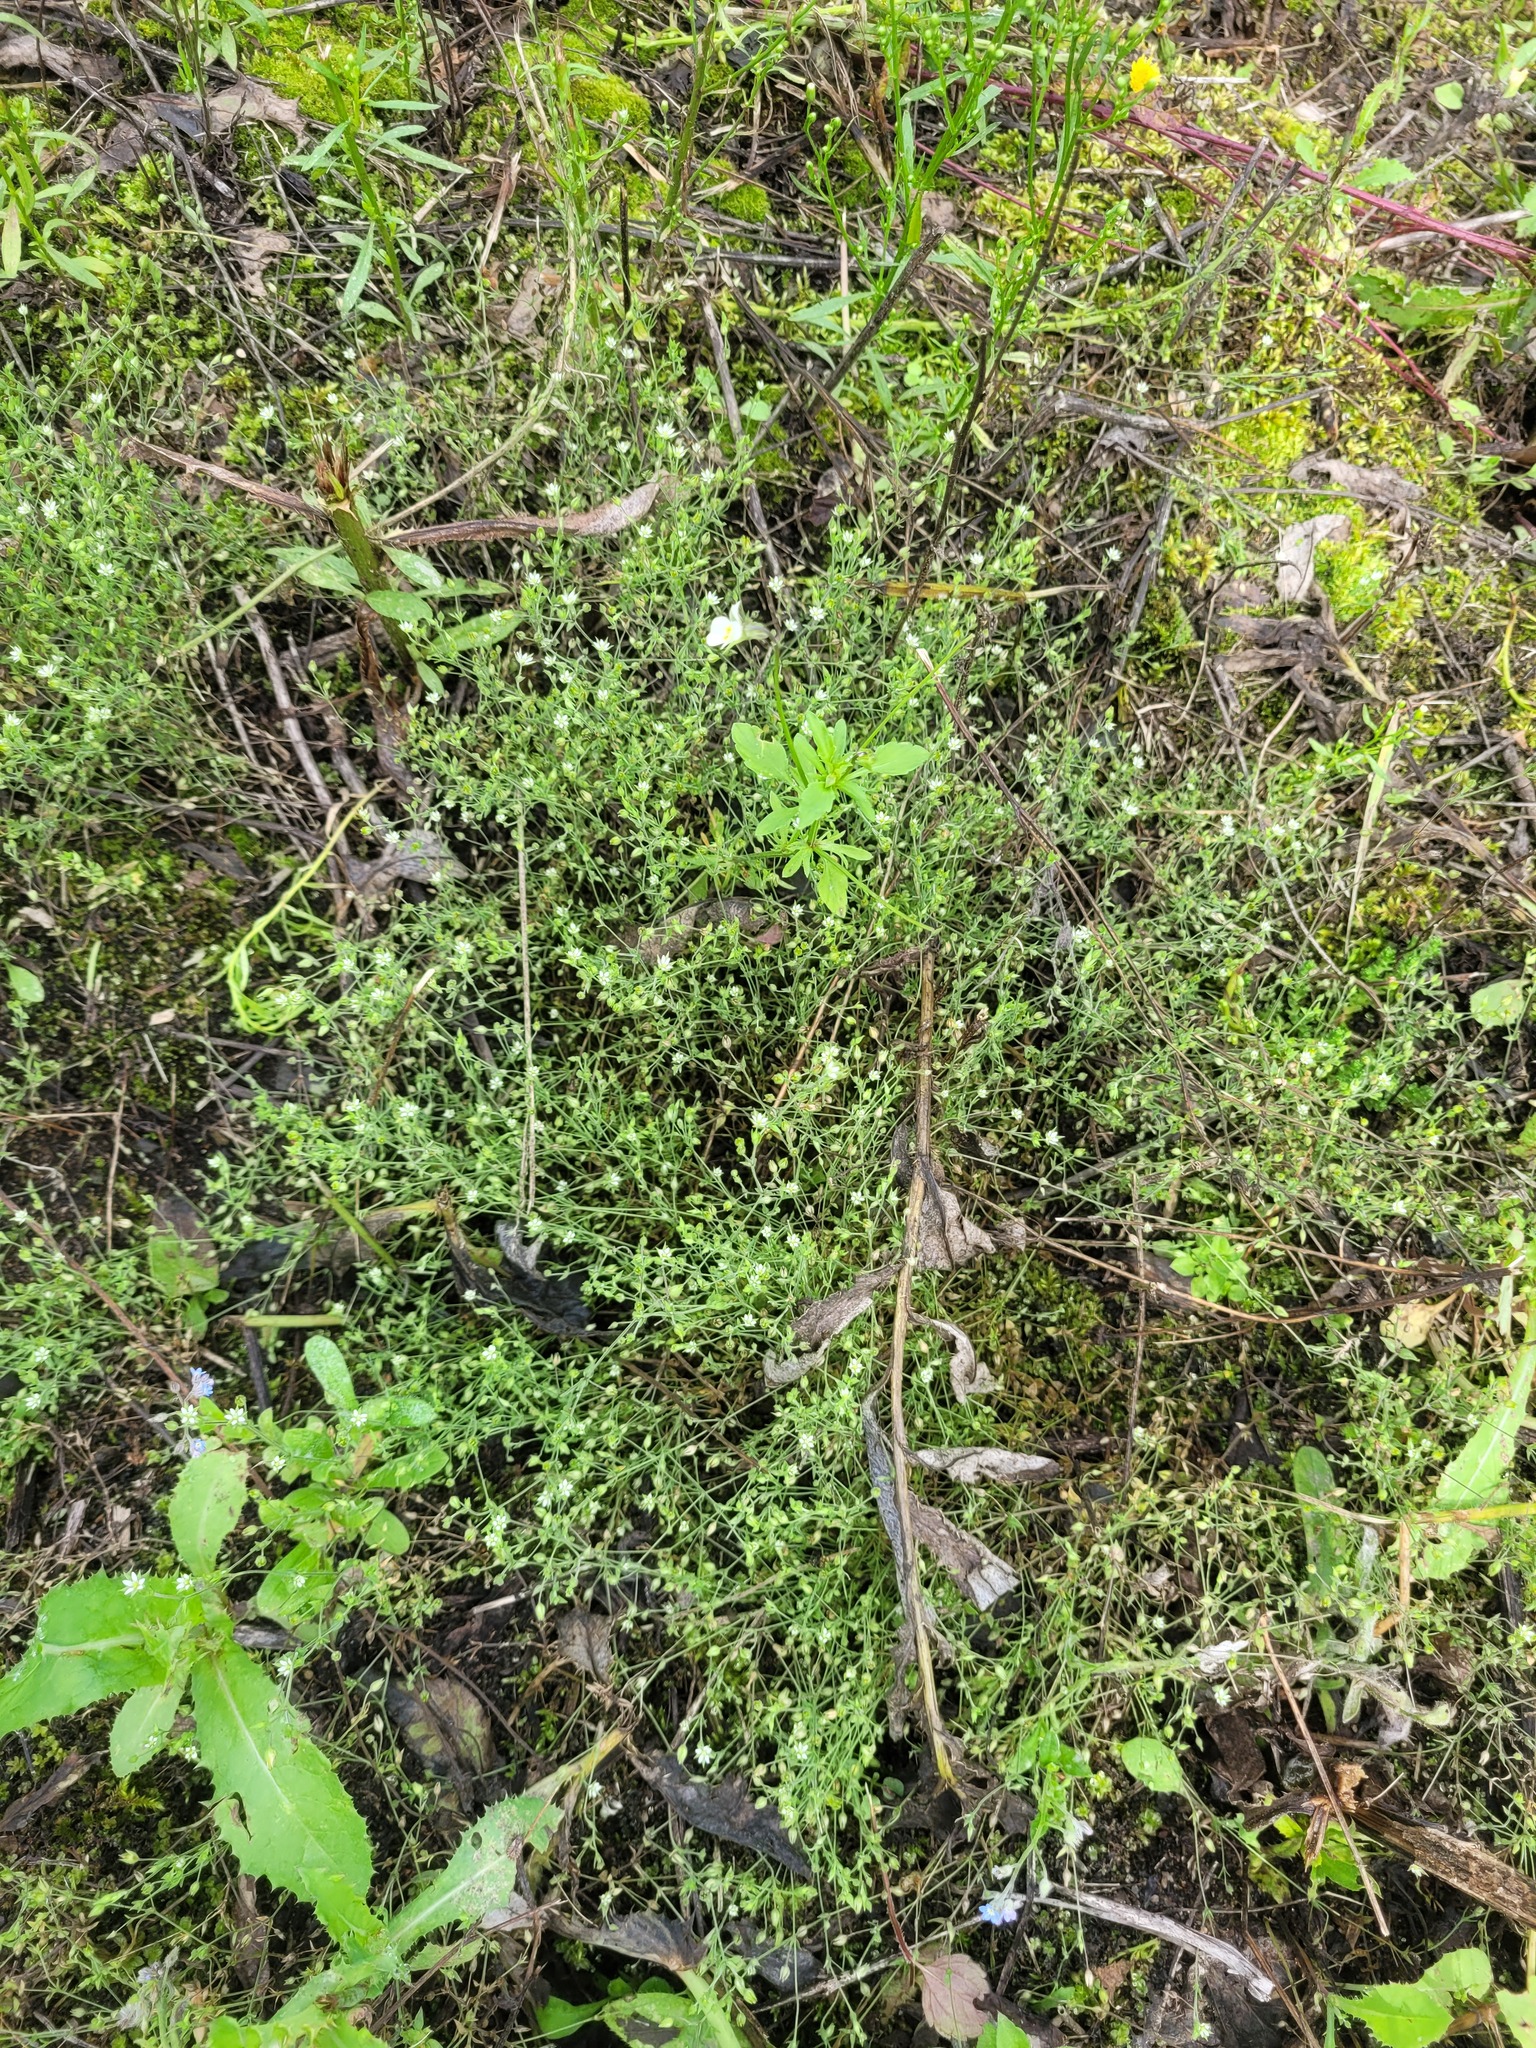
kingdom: Plantae
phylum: Tracheophyta
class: Magnoliopsida
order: Caryophyllales
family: Caryophyllaceae
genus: Arenaria
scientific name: Arenaria serpyllifolia
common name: Thyme-leaved sandwort
